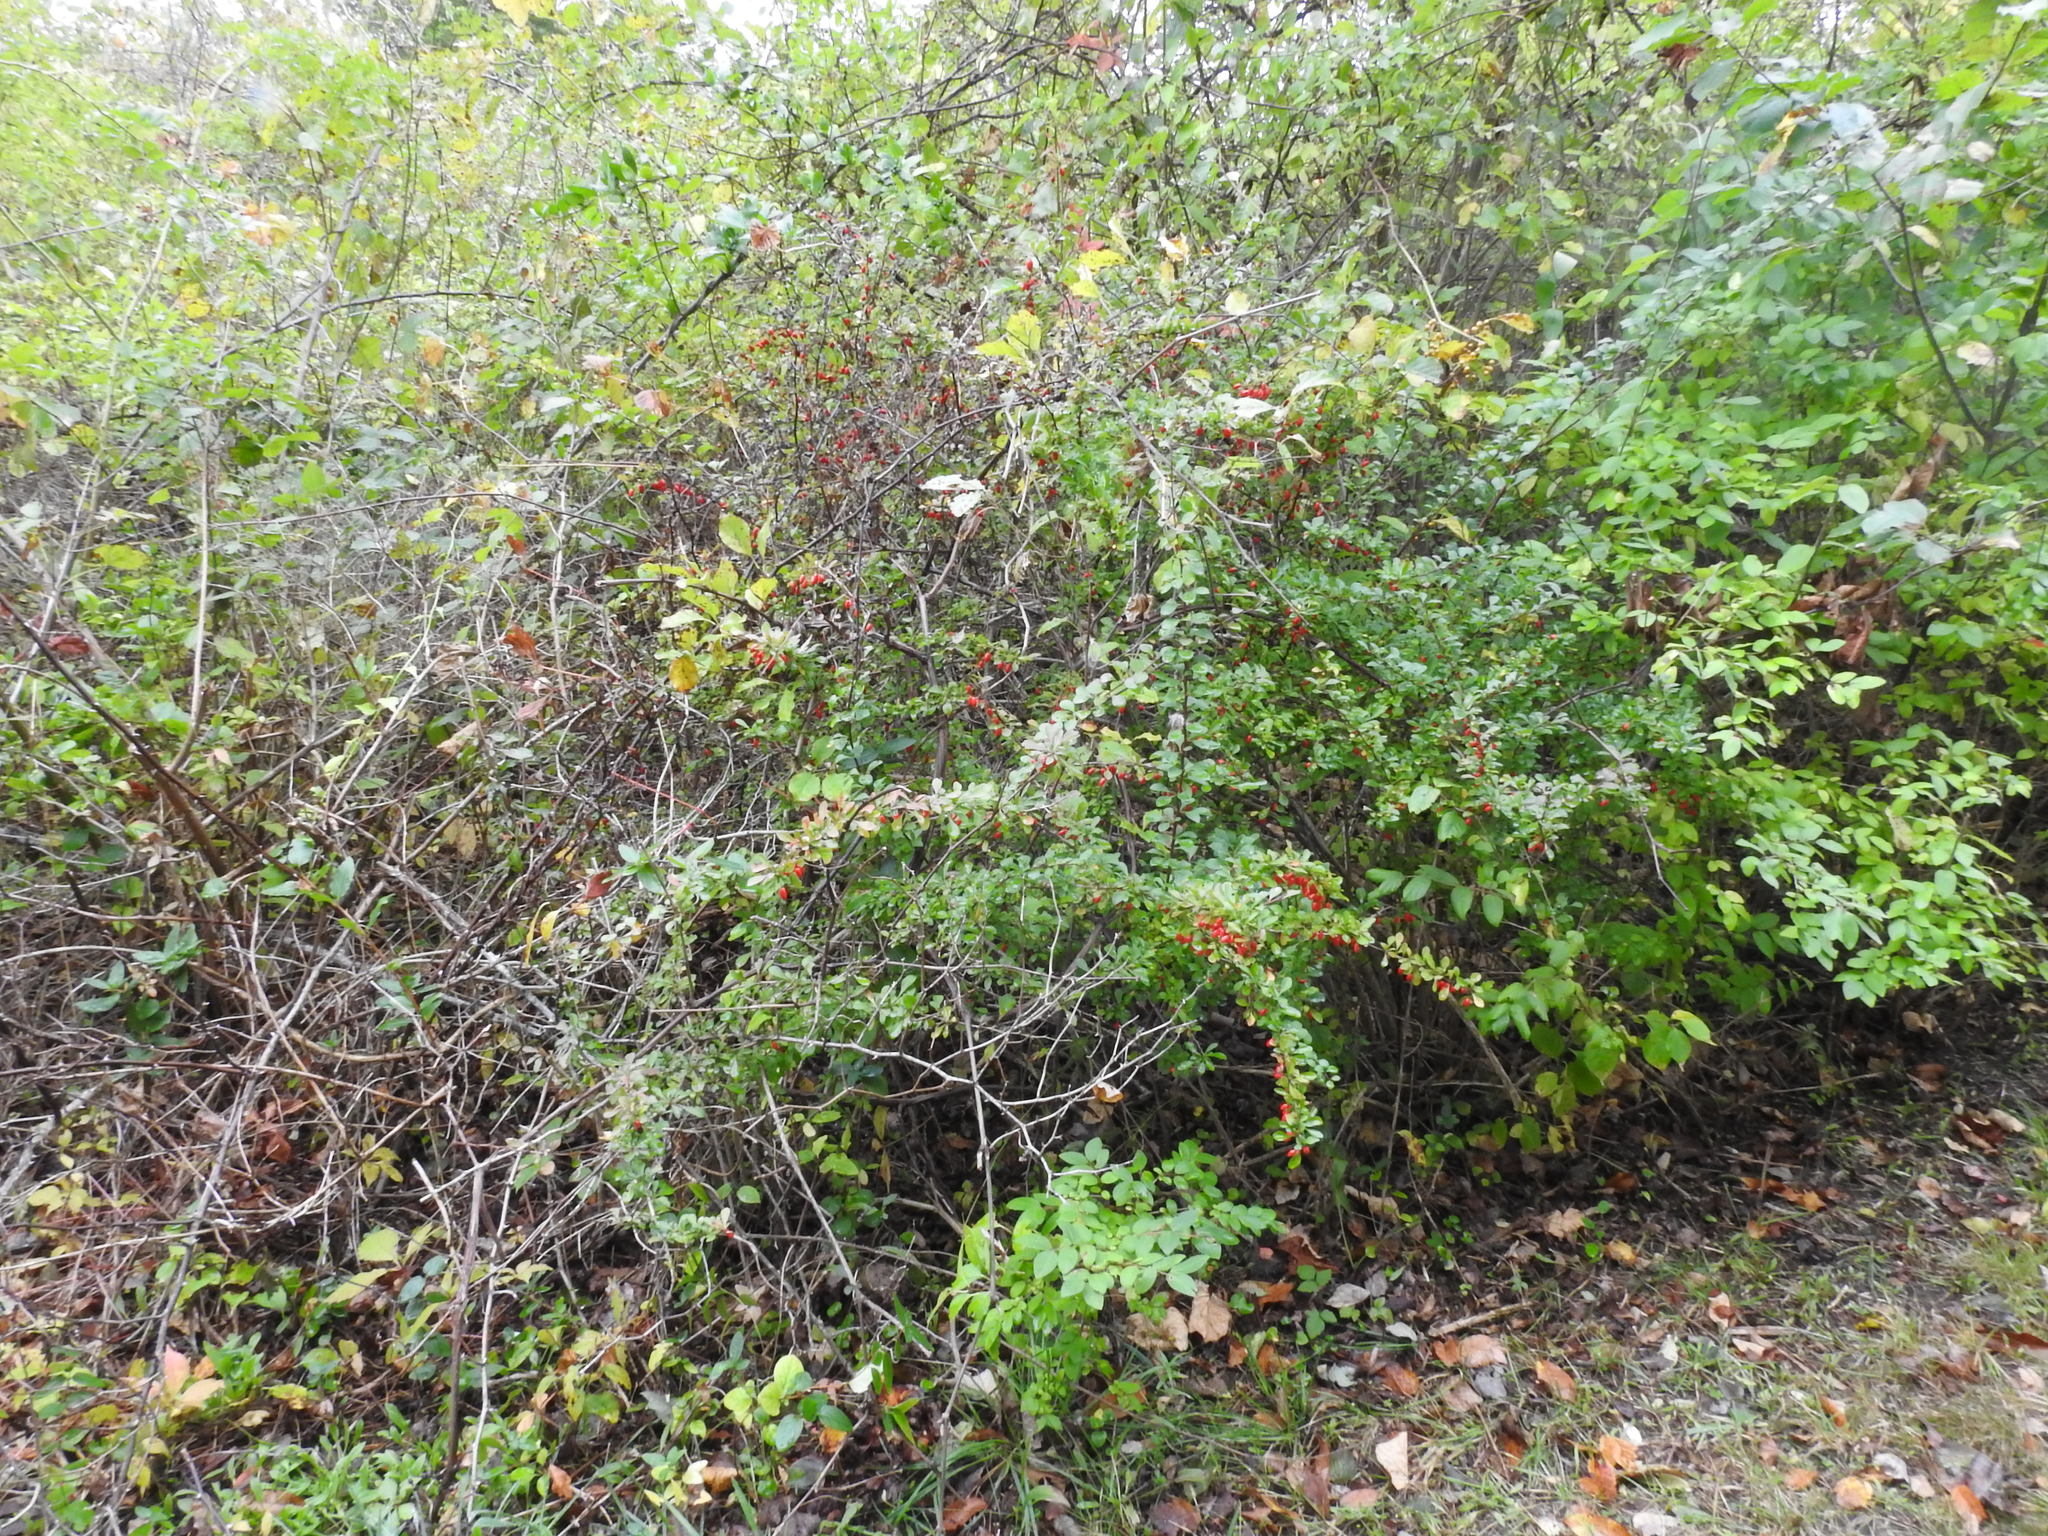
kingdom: Plantae
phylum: Tracheophyta
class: Magnoliopsida
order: Ranunculales
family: Berberidaceae
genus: Berberis
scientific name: Berberis thunbergii
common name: Japanese barberry
